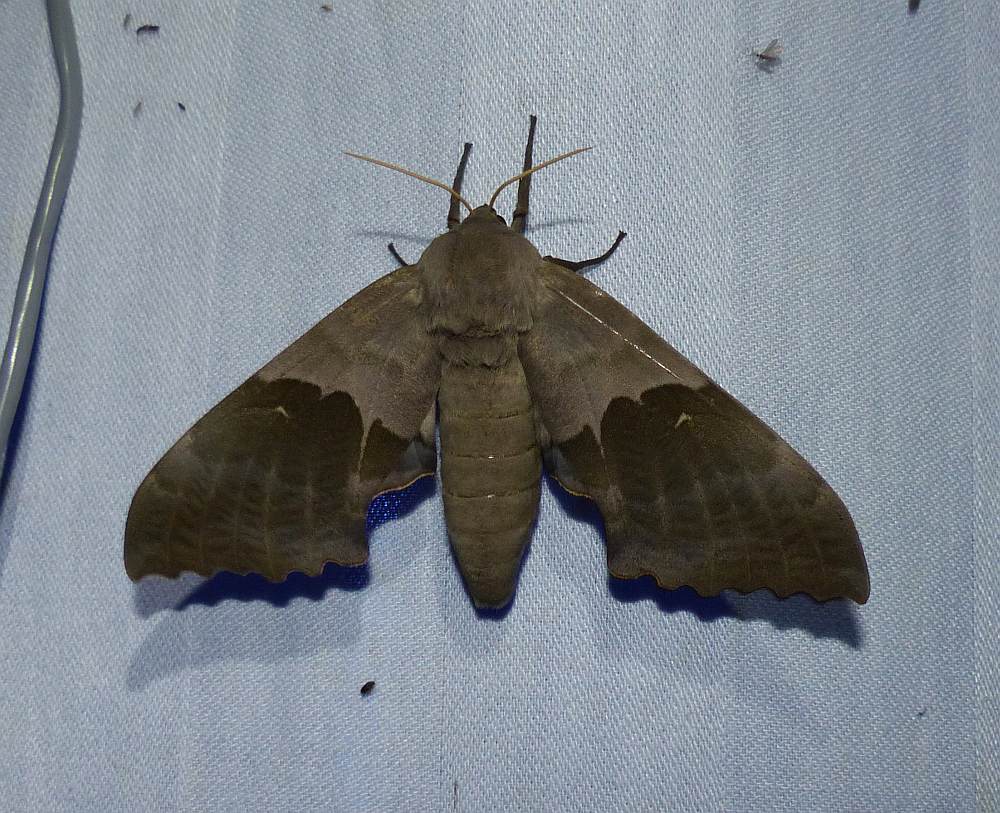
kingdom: Animalia
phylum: Arthropoda
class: Insecta
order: Lepidoptera
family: Sphingidae
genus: Pachysphinx
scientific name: Pachysphinx modesta
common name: Big poplar sphinx
